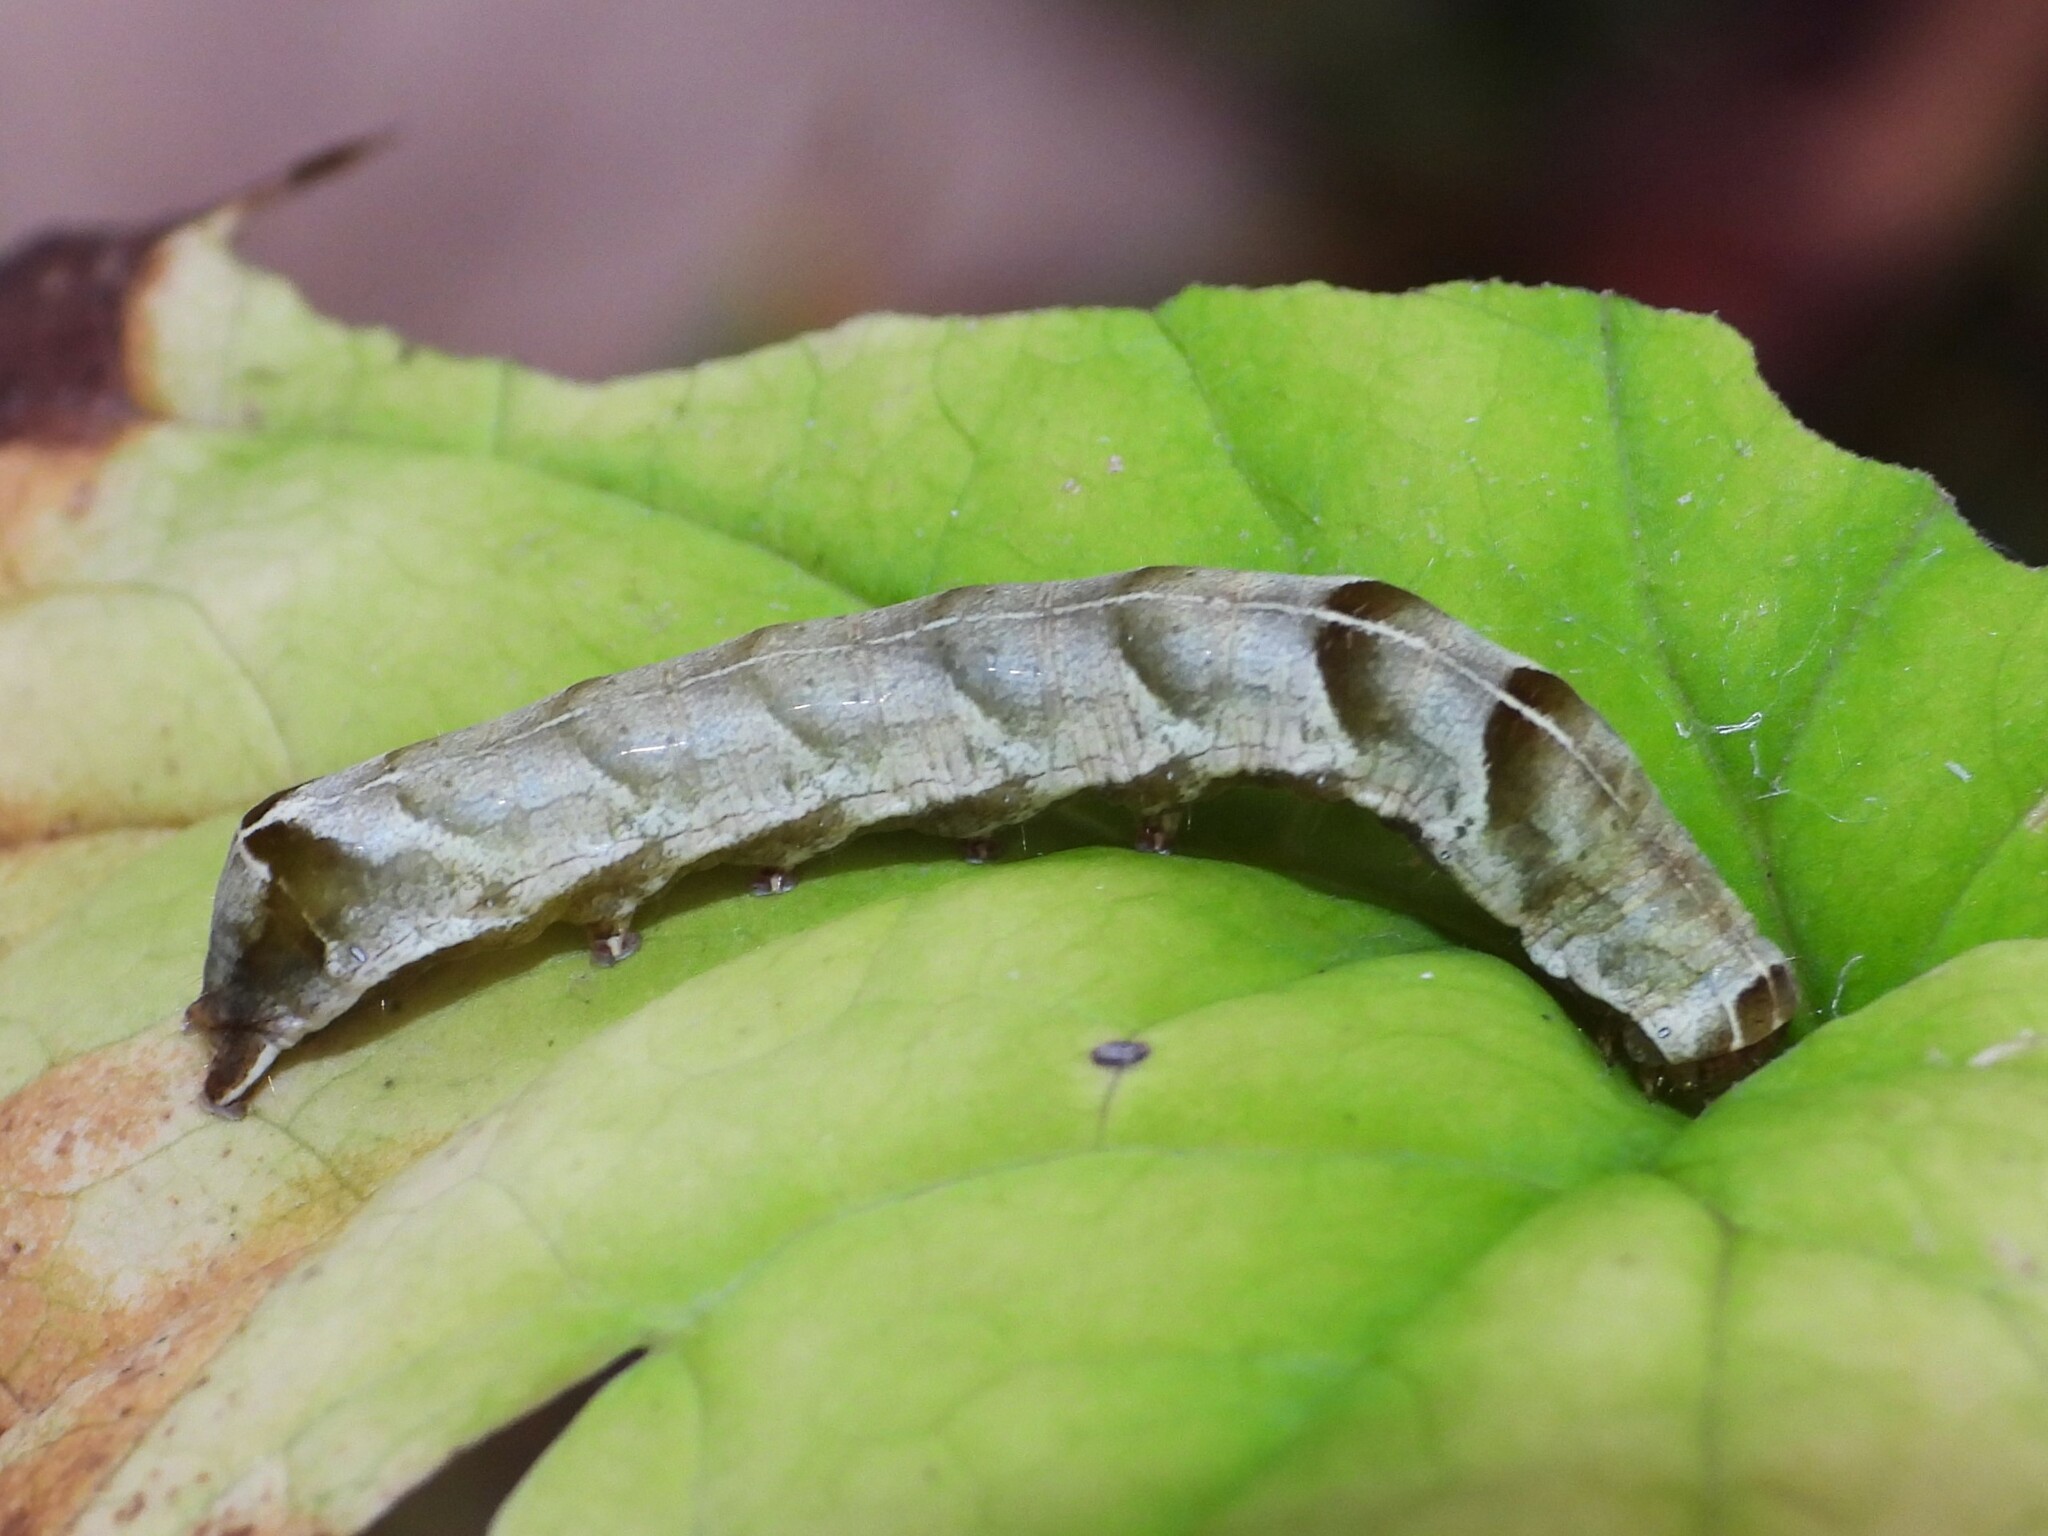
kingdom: Animalia
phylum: Arthropoda
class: Insecta
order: Lepidoptera
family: Noctuidae
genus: Melanchra
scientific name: Melanchra adjuncta
